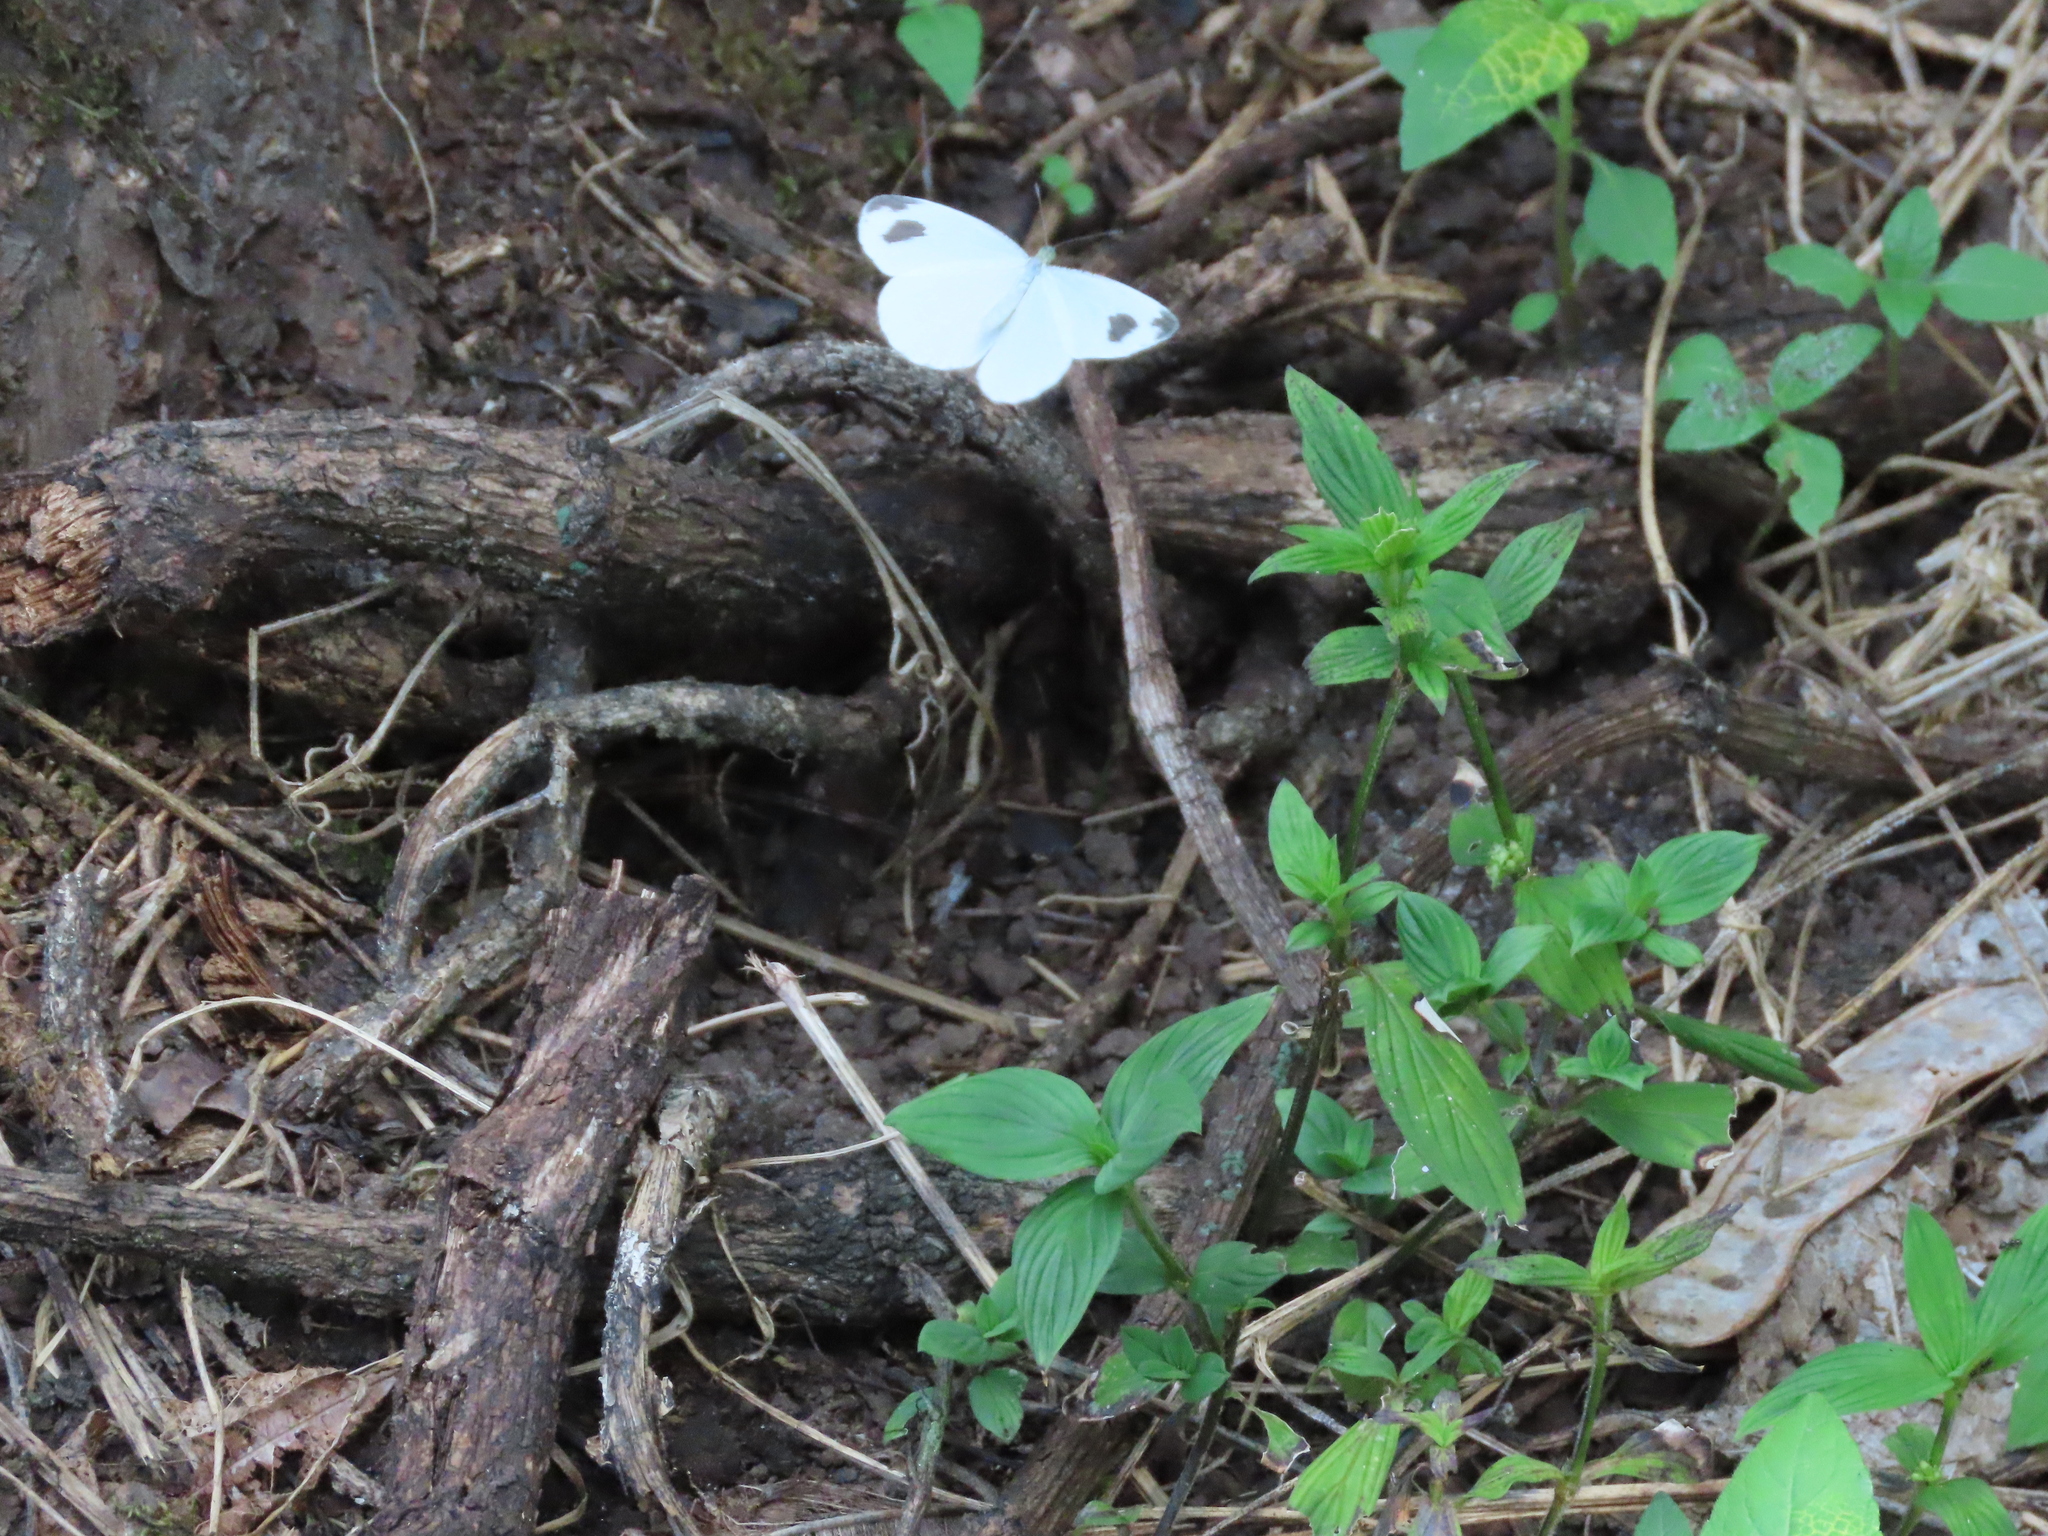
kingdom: Animalia
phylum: Arthropoda
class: Insecta
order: Lepidoptera
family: Pieridae
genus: Leptosia
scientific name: Leptosia nina
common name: Psyche
